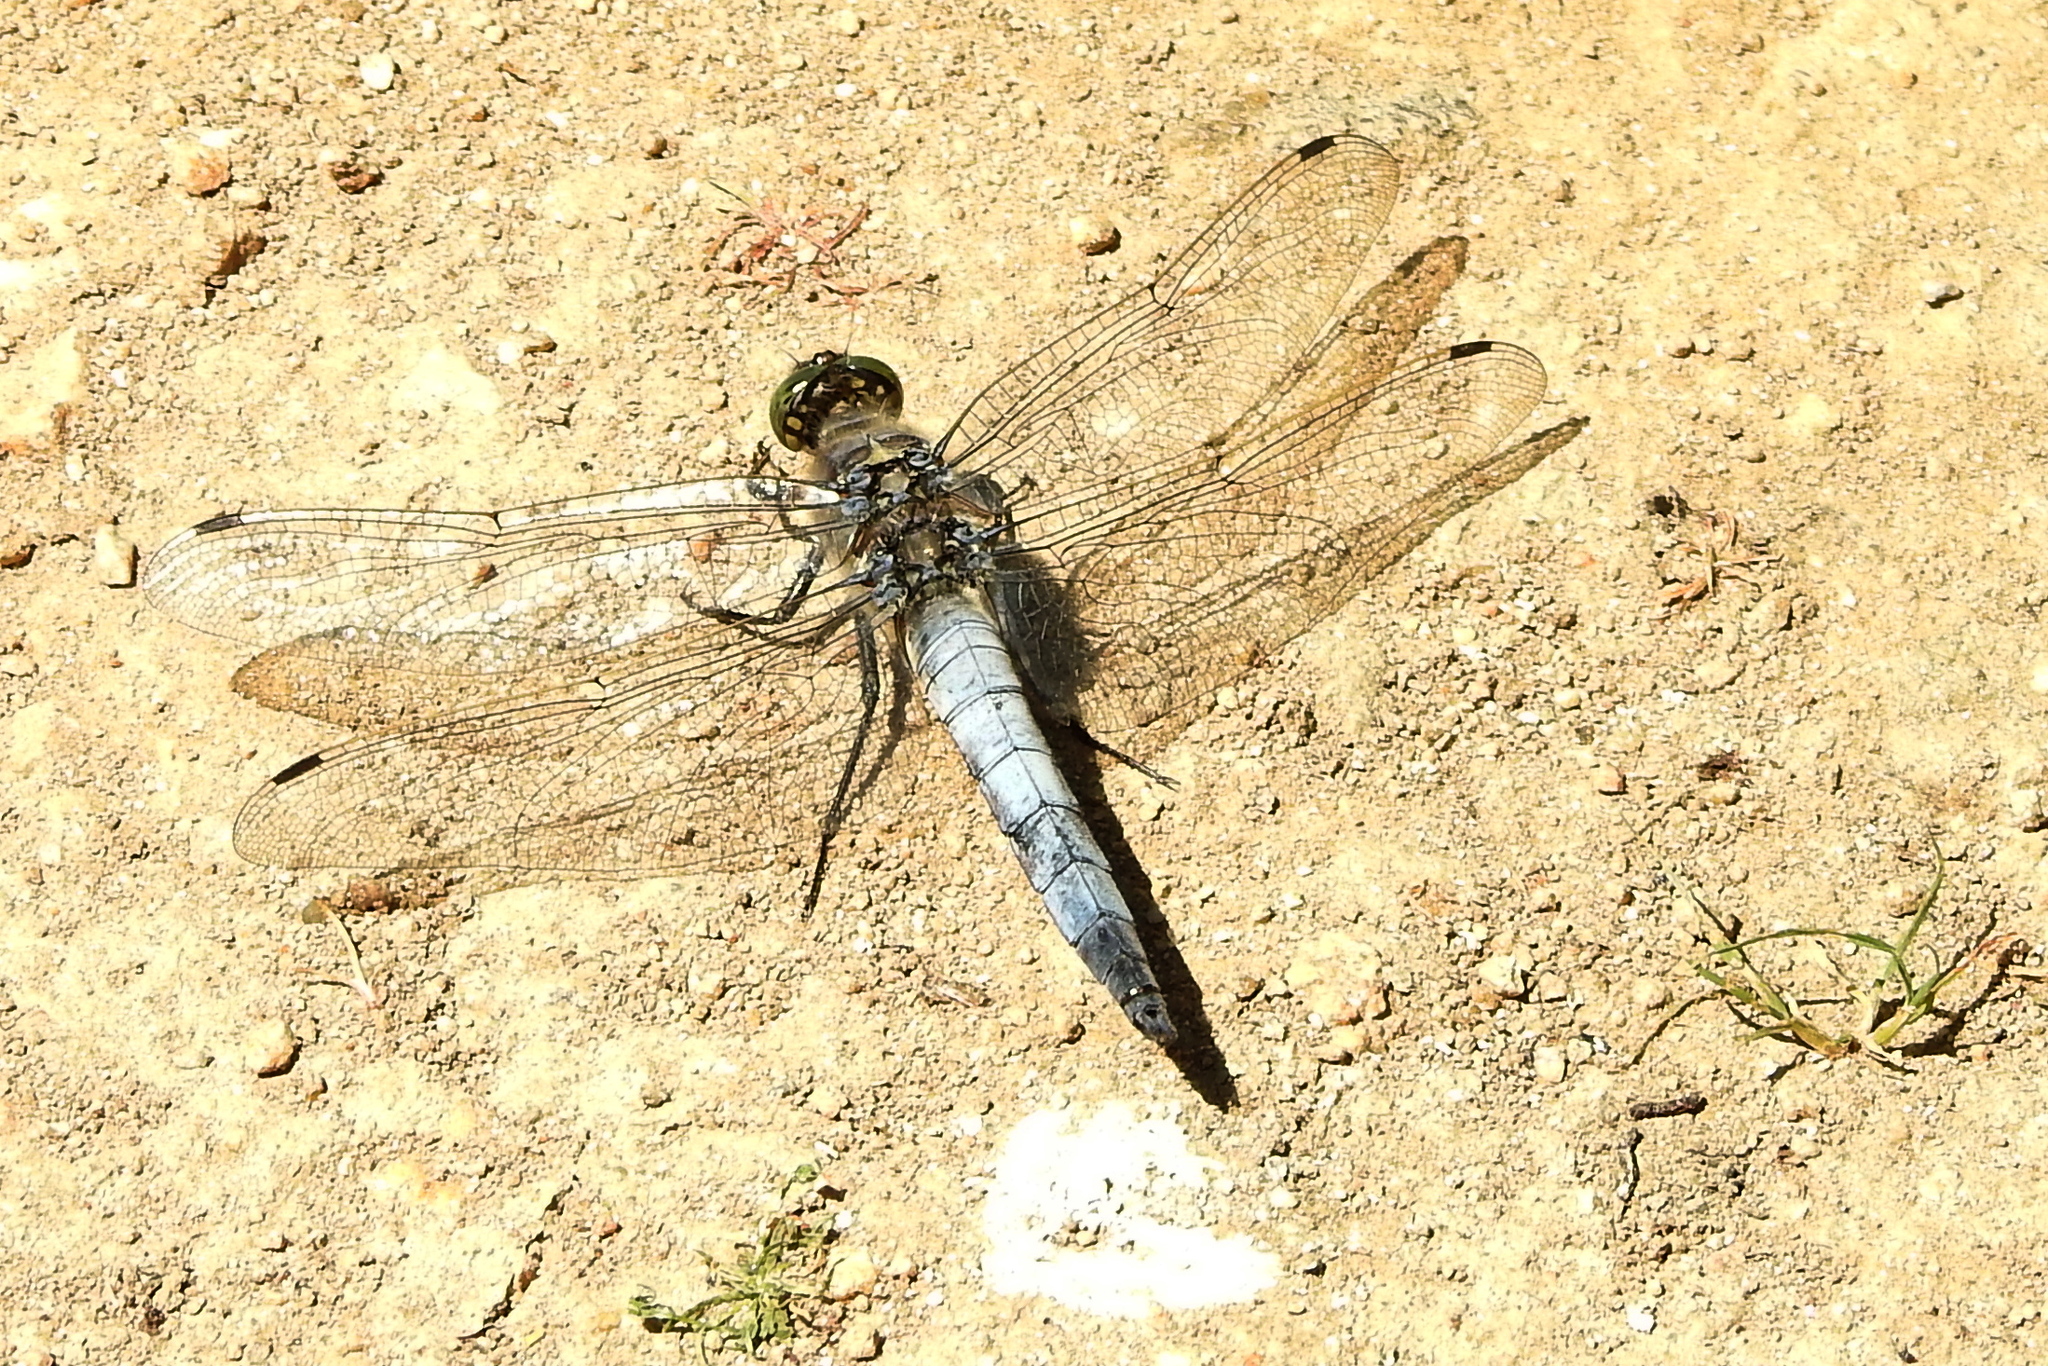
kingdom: Animalia
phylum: Arthropoda
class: Insecta
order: Odonata
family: Libellulidae
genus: Orthetrum
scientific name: Orthetrum cancellatum
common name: Black-tailed skimmer
